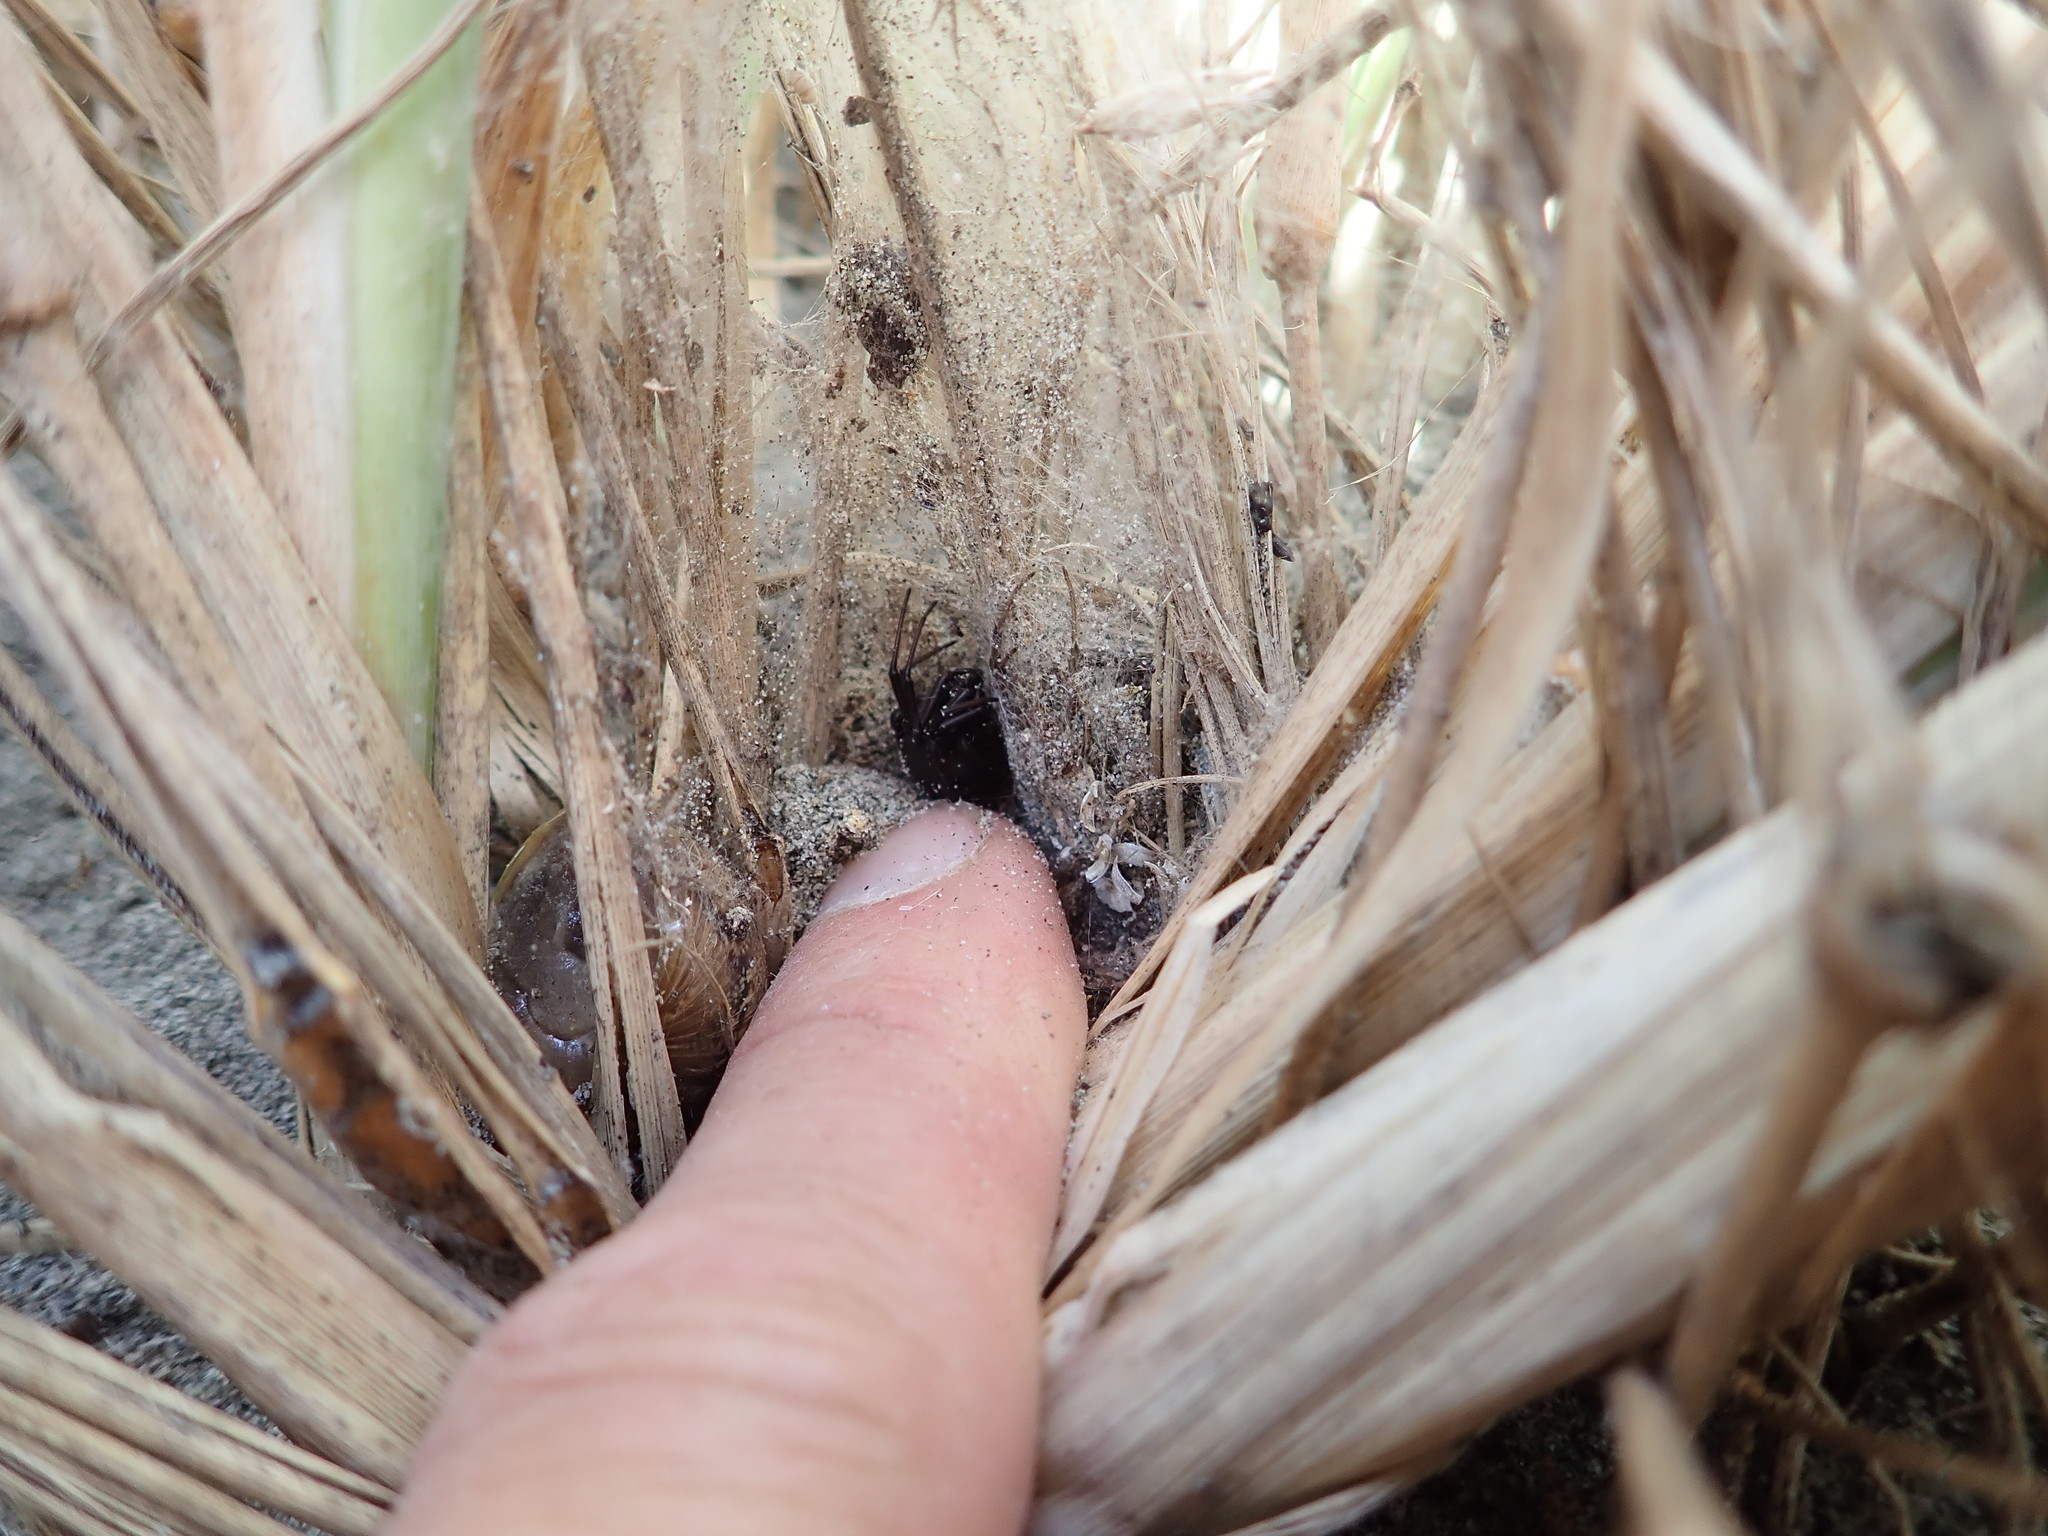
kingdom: Animalia
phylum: Arthropoda
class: Arachnida
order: Araneae
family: Theridiidae
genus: Latrodectus
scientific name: Latrodectus katipo
